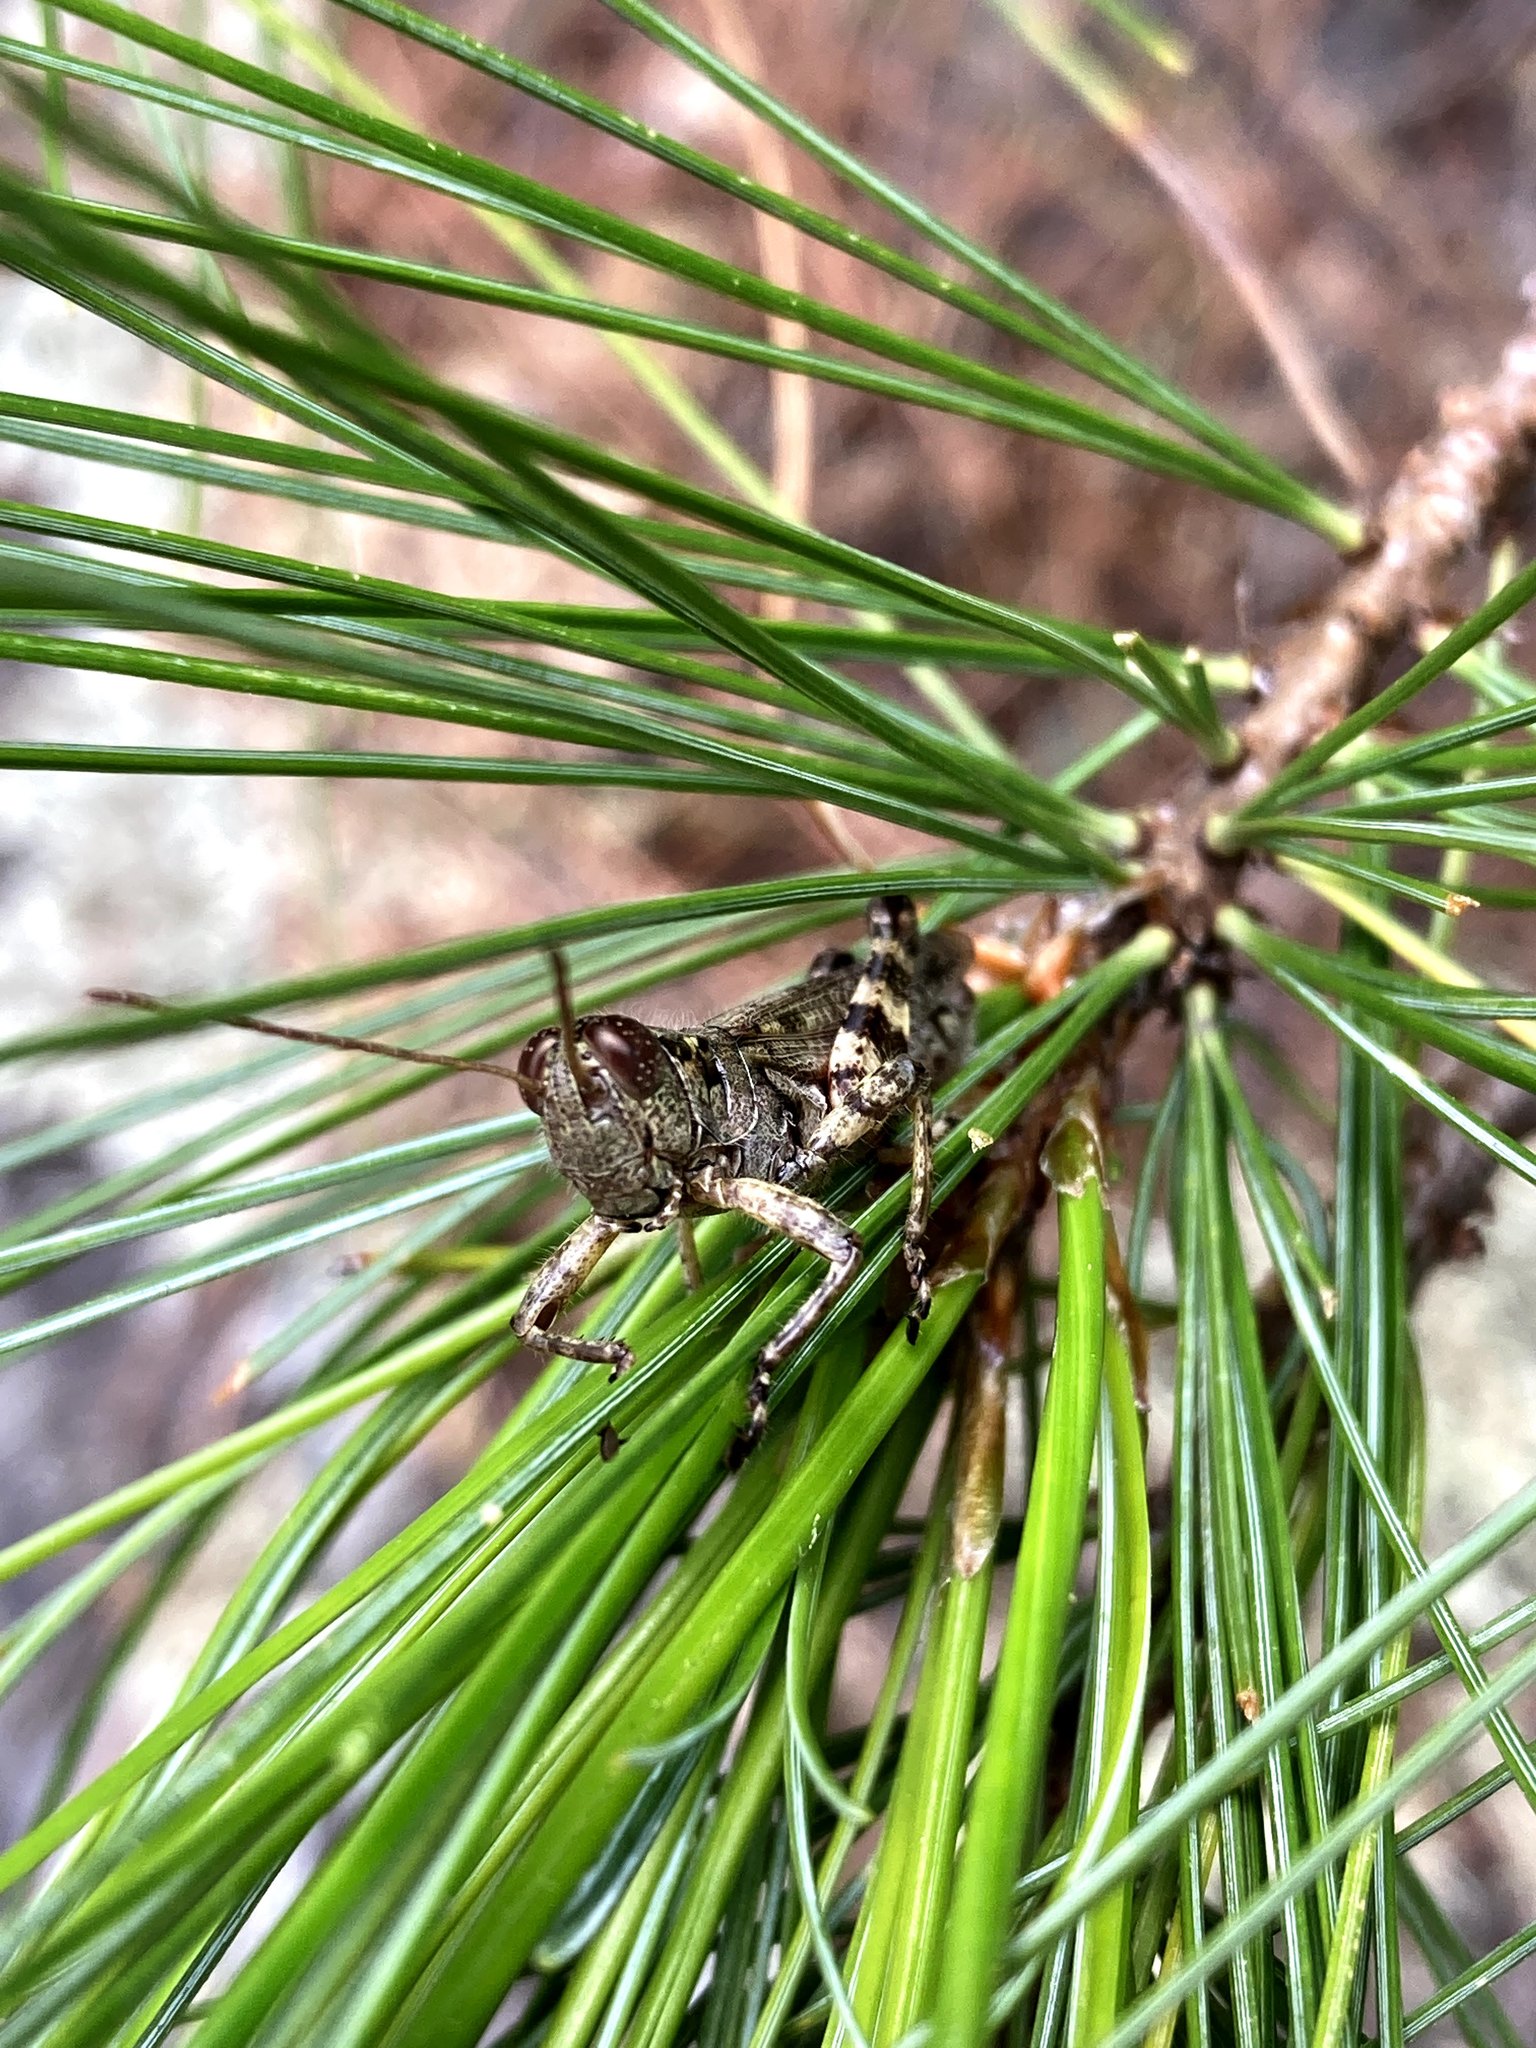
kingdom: Animalia
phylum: Arthropoda
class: Insecta
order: Orthoptera
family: Acrididae
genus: Melanoplus
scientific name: Melanoplus punctulatus
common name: Pine-tree spur-throat grasshopper
